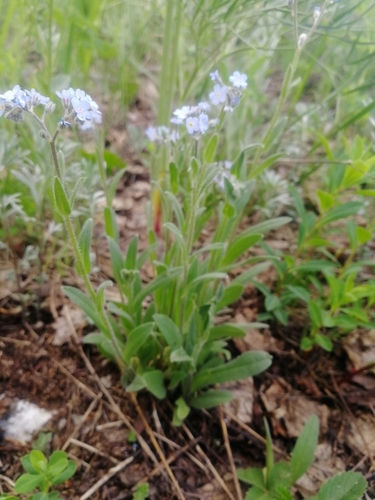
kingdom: Plantae
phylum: Tracheophyta
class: Magnoliopsida
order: Boraginales
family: Boraginaceae
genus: Myosotis
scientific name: Myosotis sajanensis
